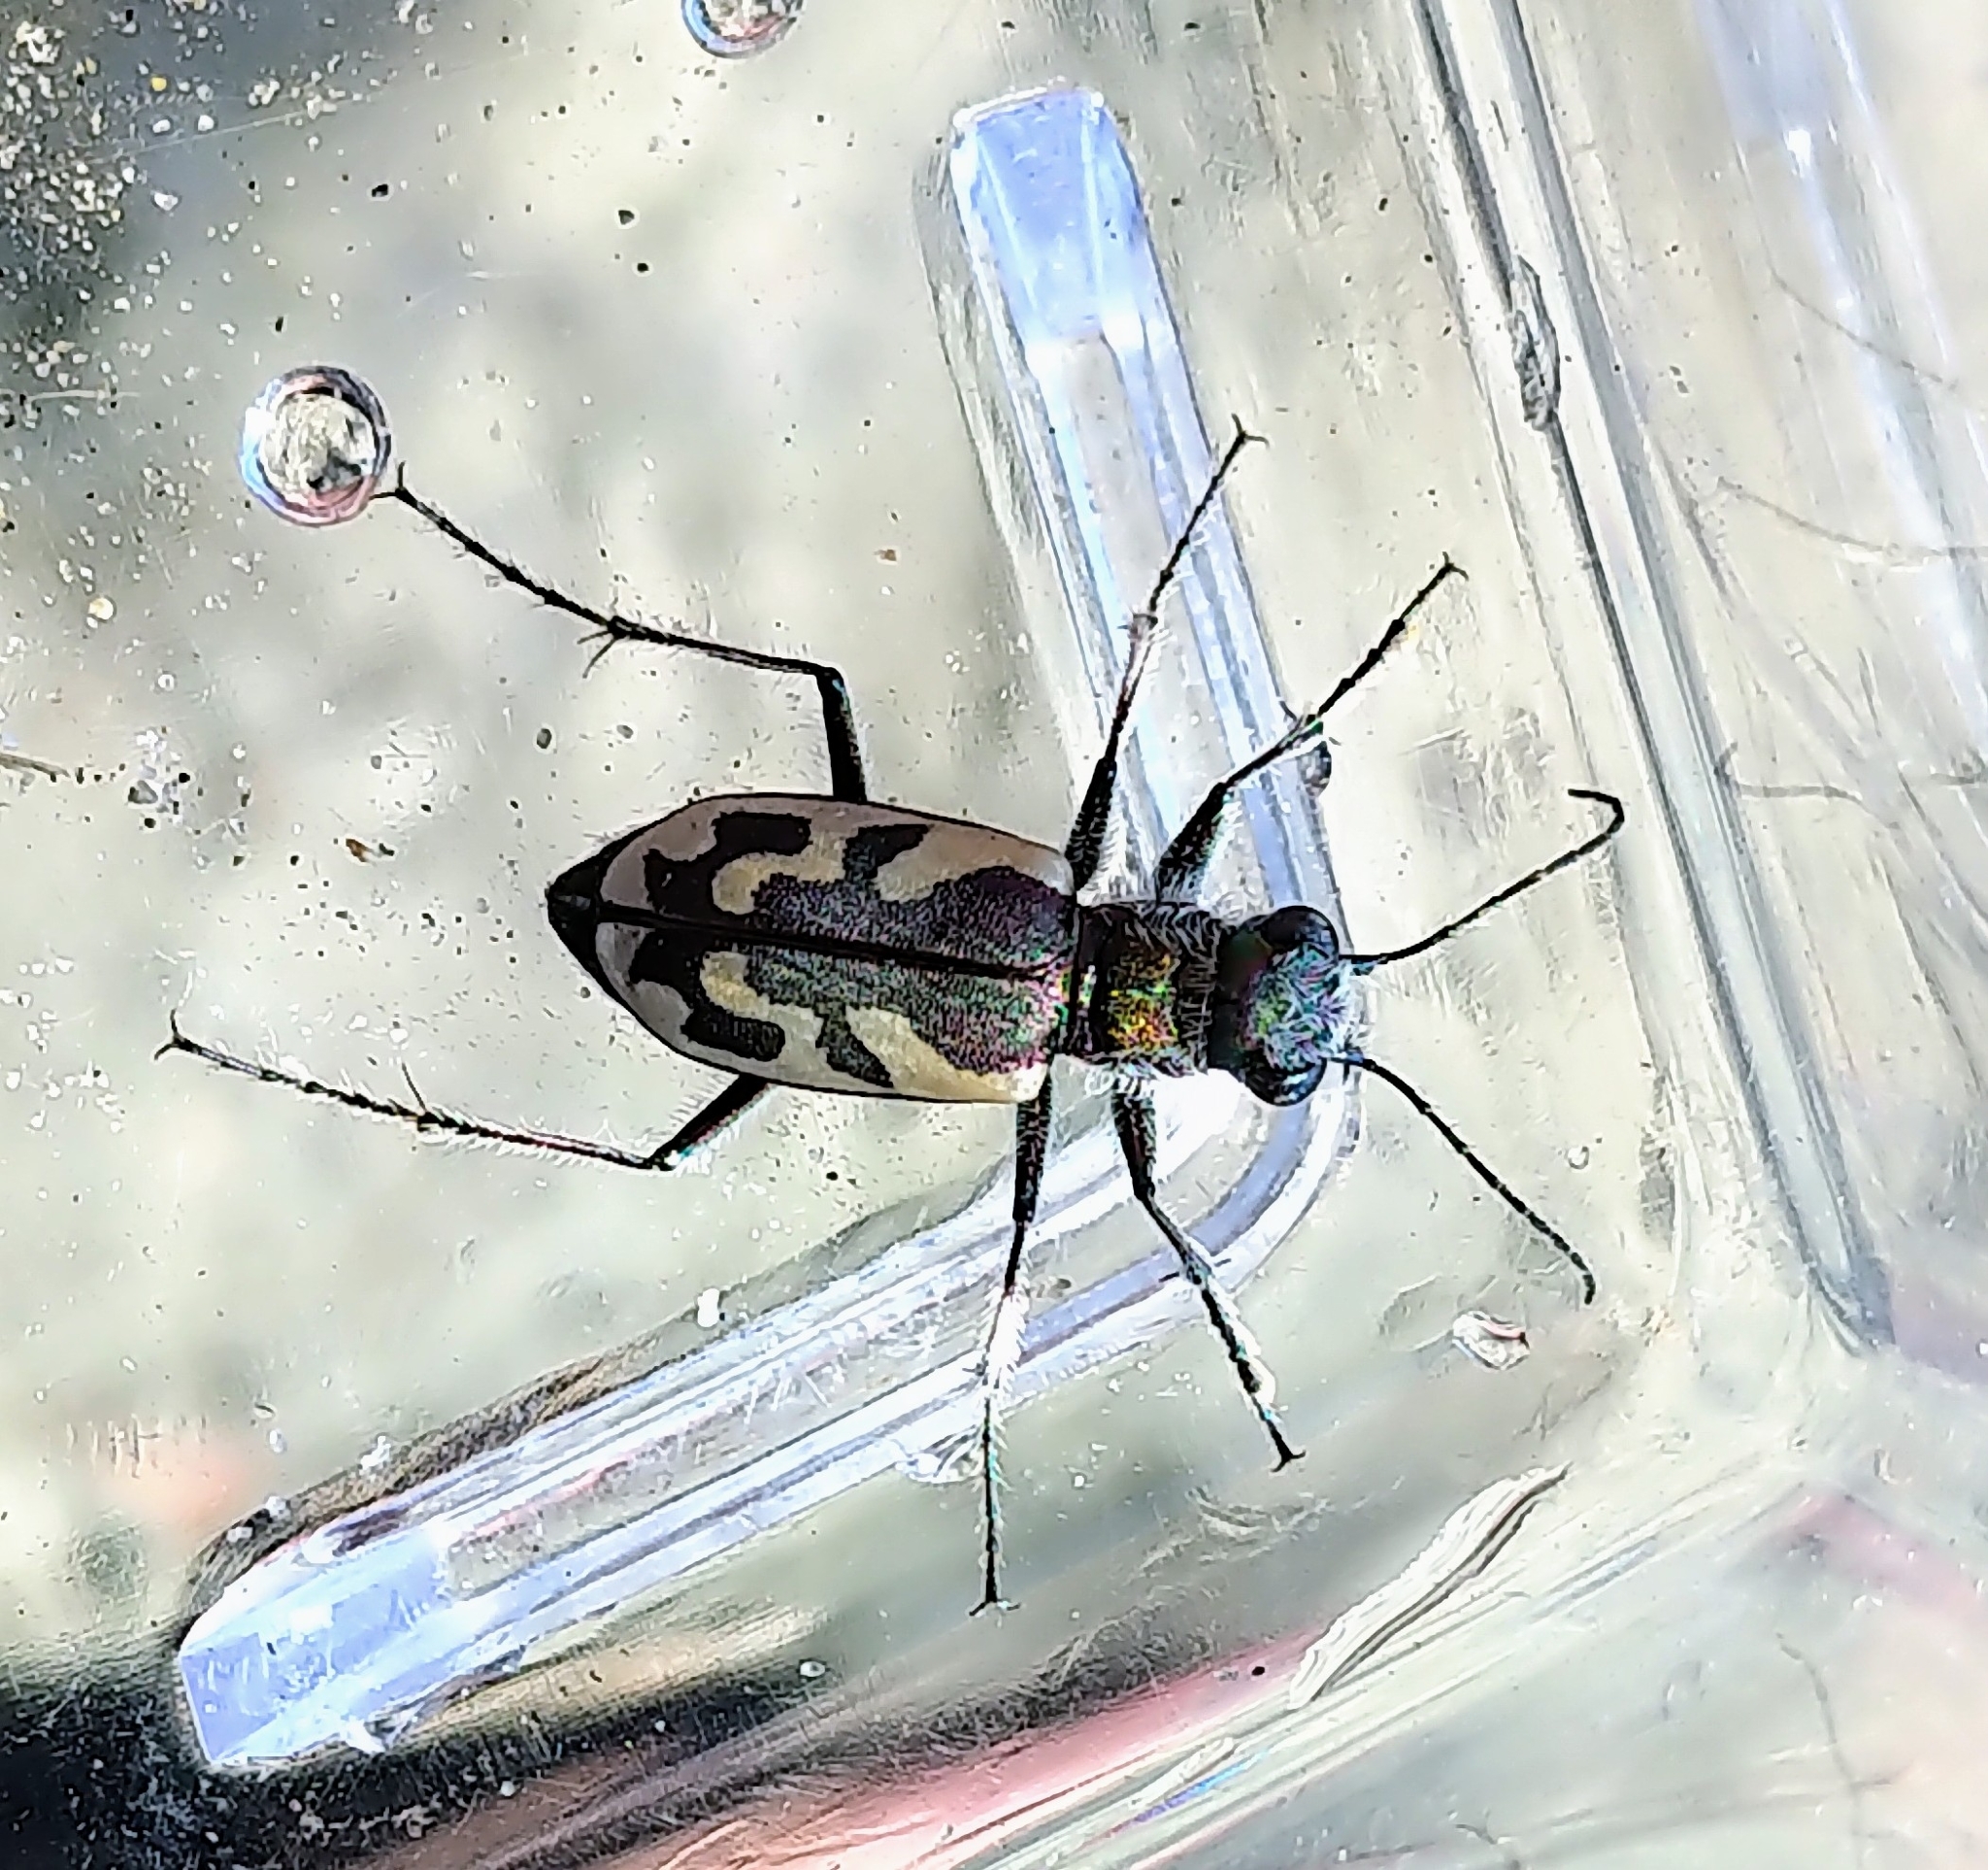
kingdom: Animalia
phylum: Arthropoda
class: Insecta
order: Coleoptera
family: Carabidae
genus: Cicindela
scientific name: Cicindela lengi
